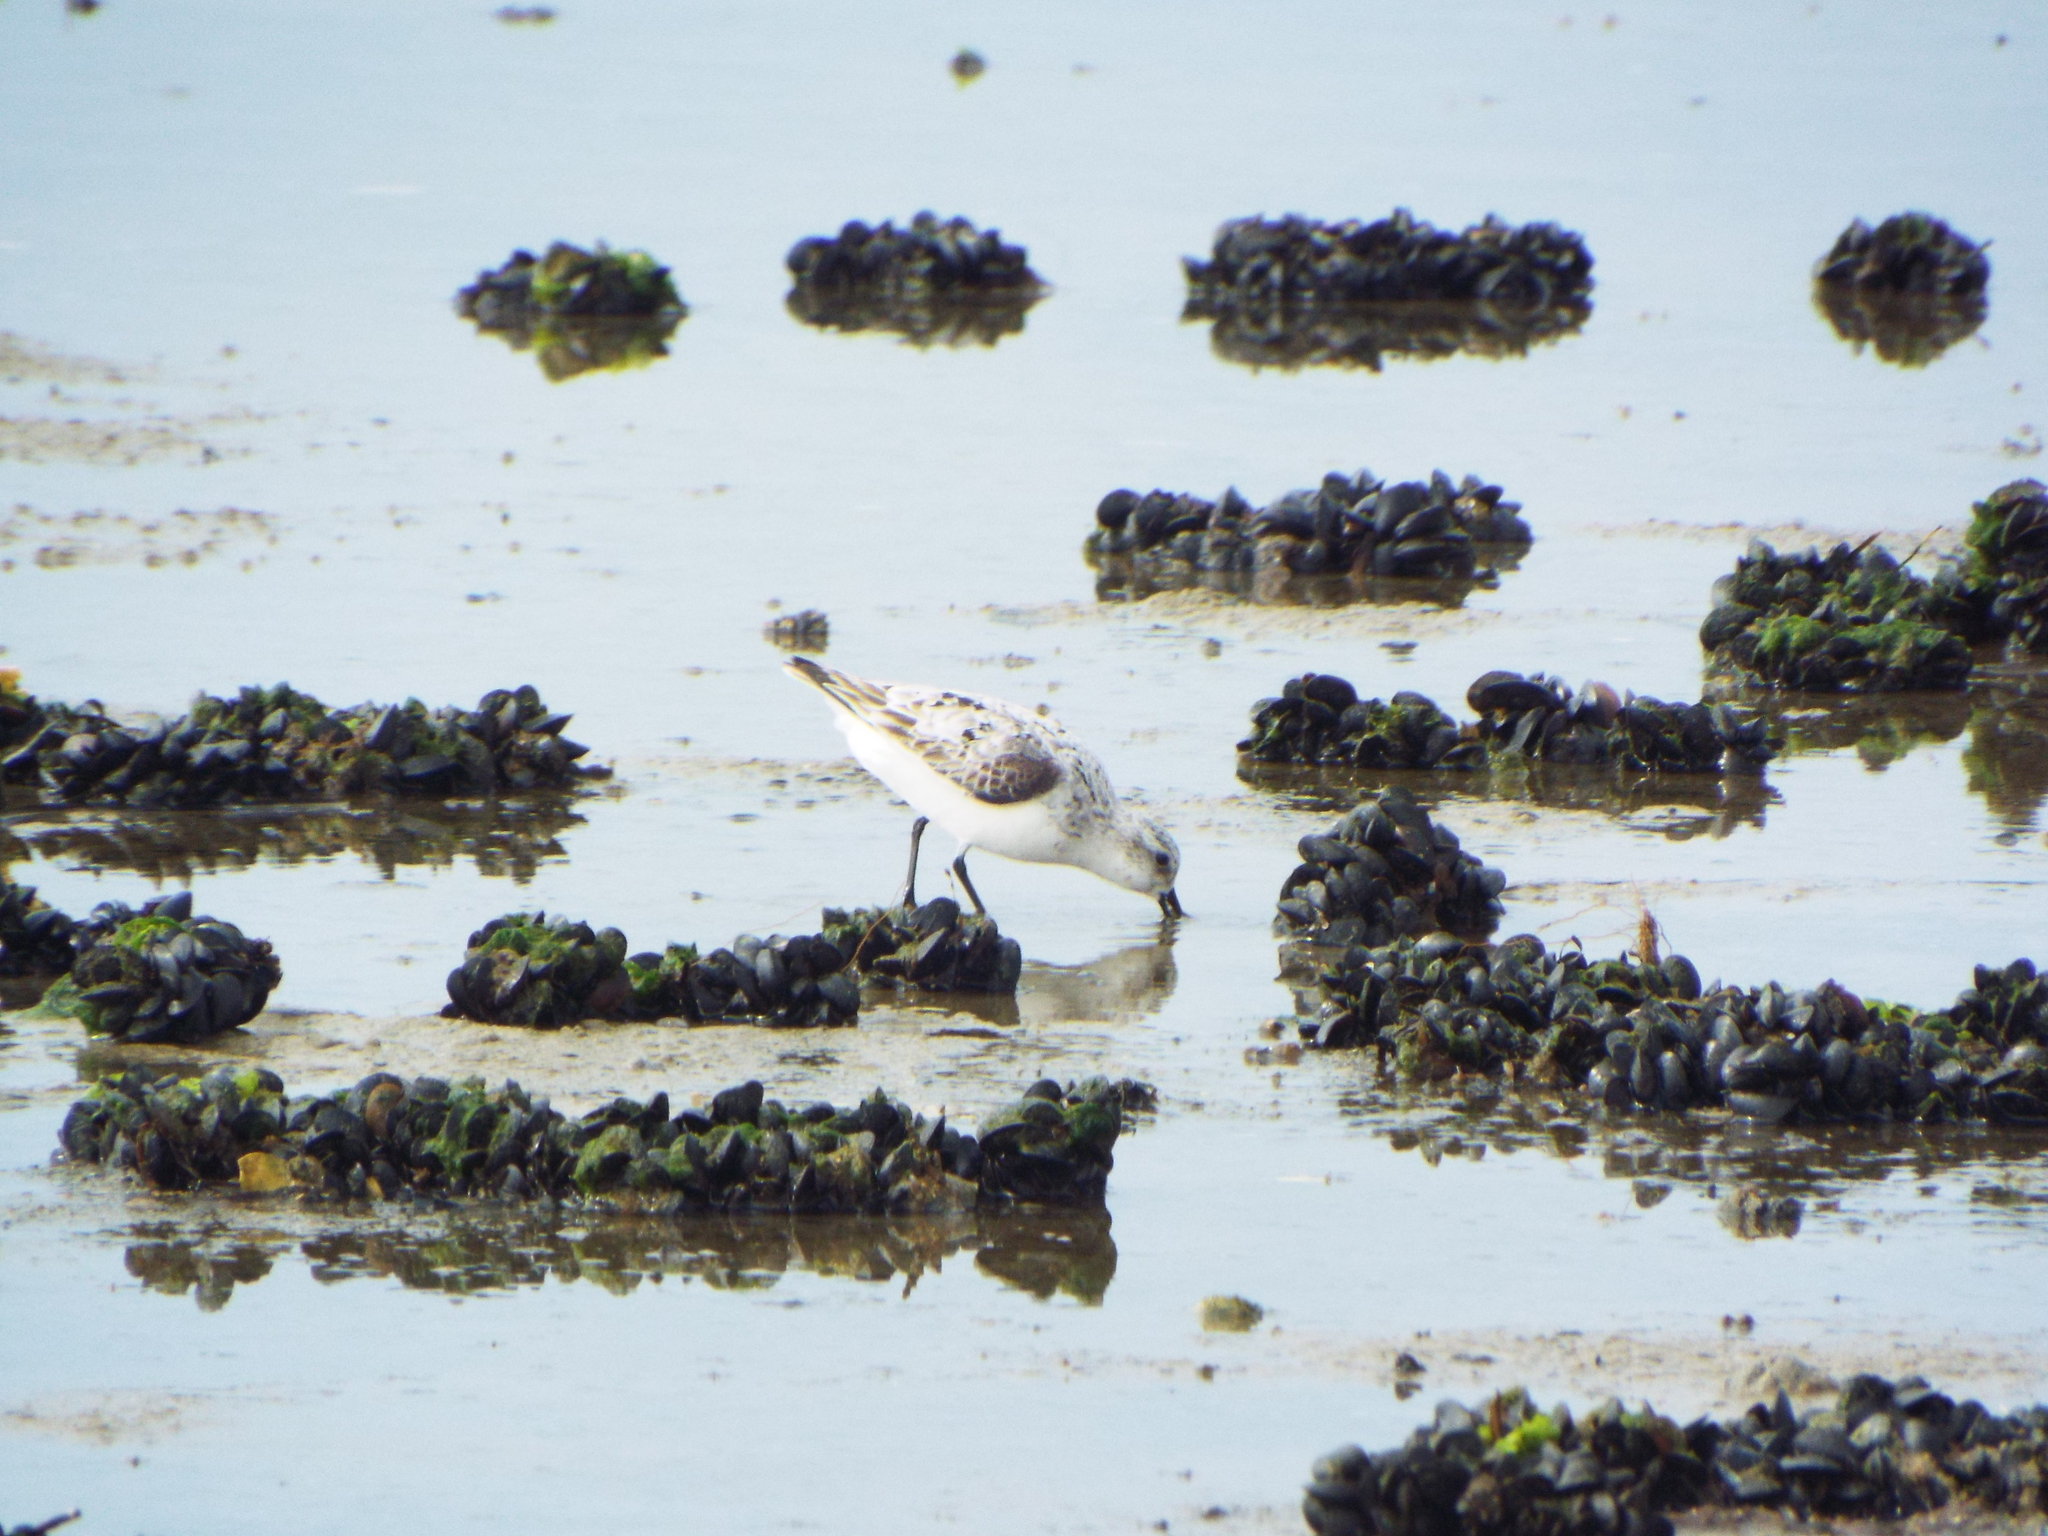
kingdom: Animalia
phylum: Chordata
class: Aves
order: Charadriiformes
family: Scolopacidae
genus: Calidris
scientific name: Calidris alba
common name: Sanderling
